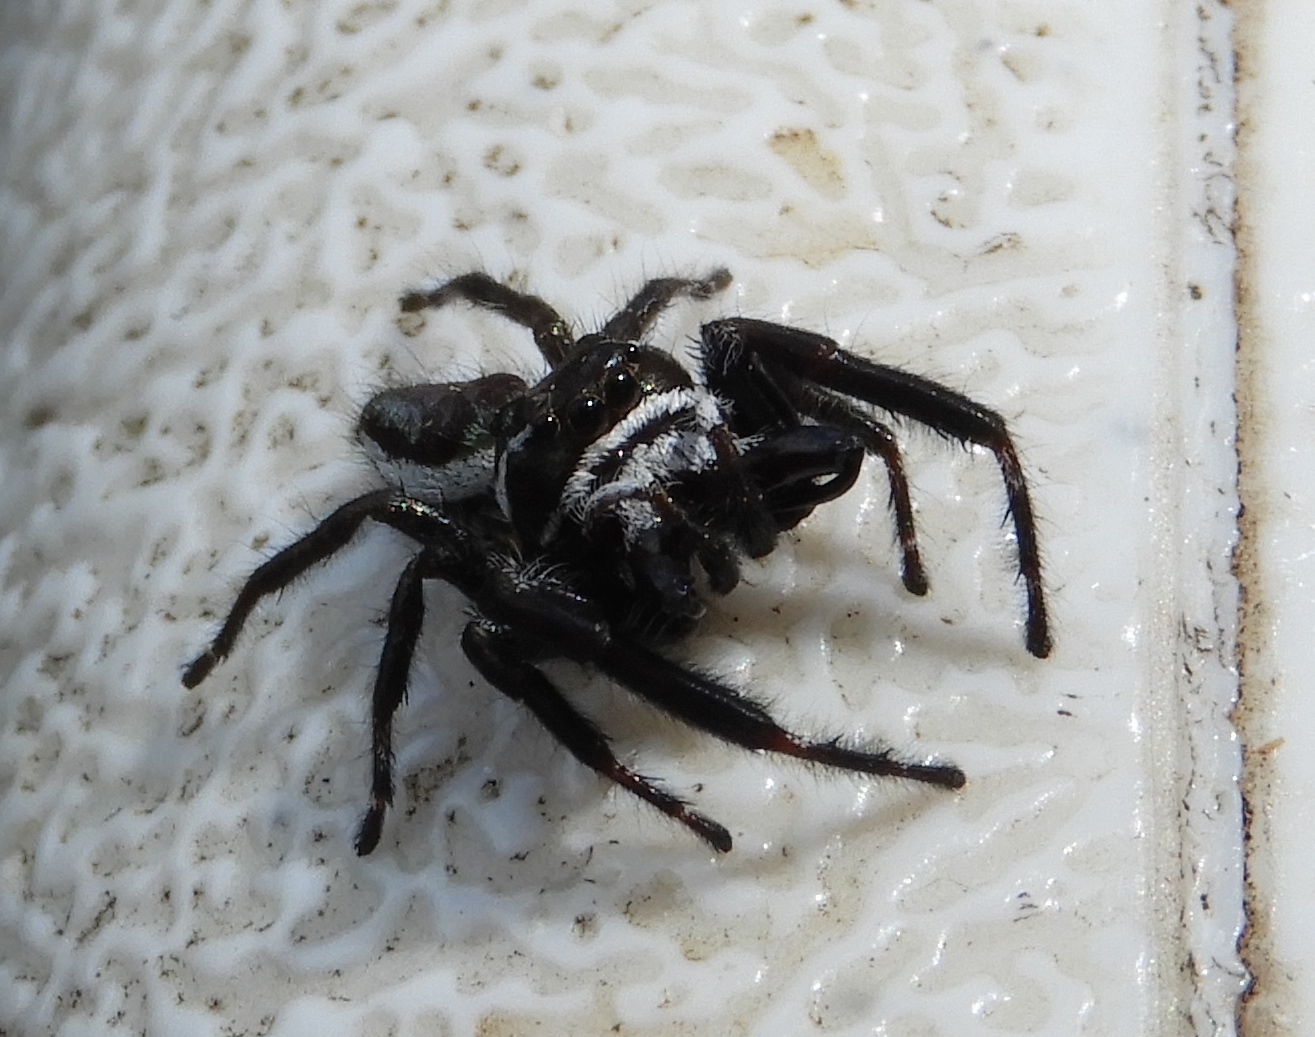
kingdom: Animalia
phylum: Arthropoda
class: Arachnida
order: Araneae
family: Salticidae
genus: Messua
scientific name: Messua
